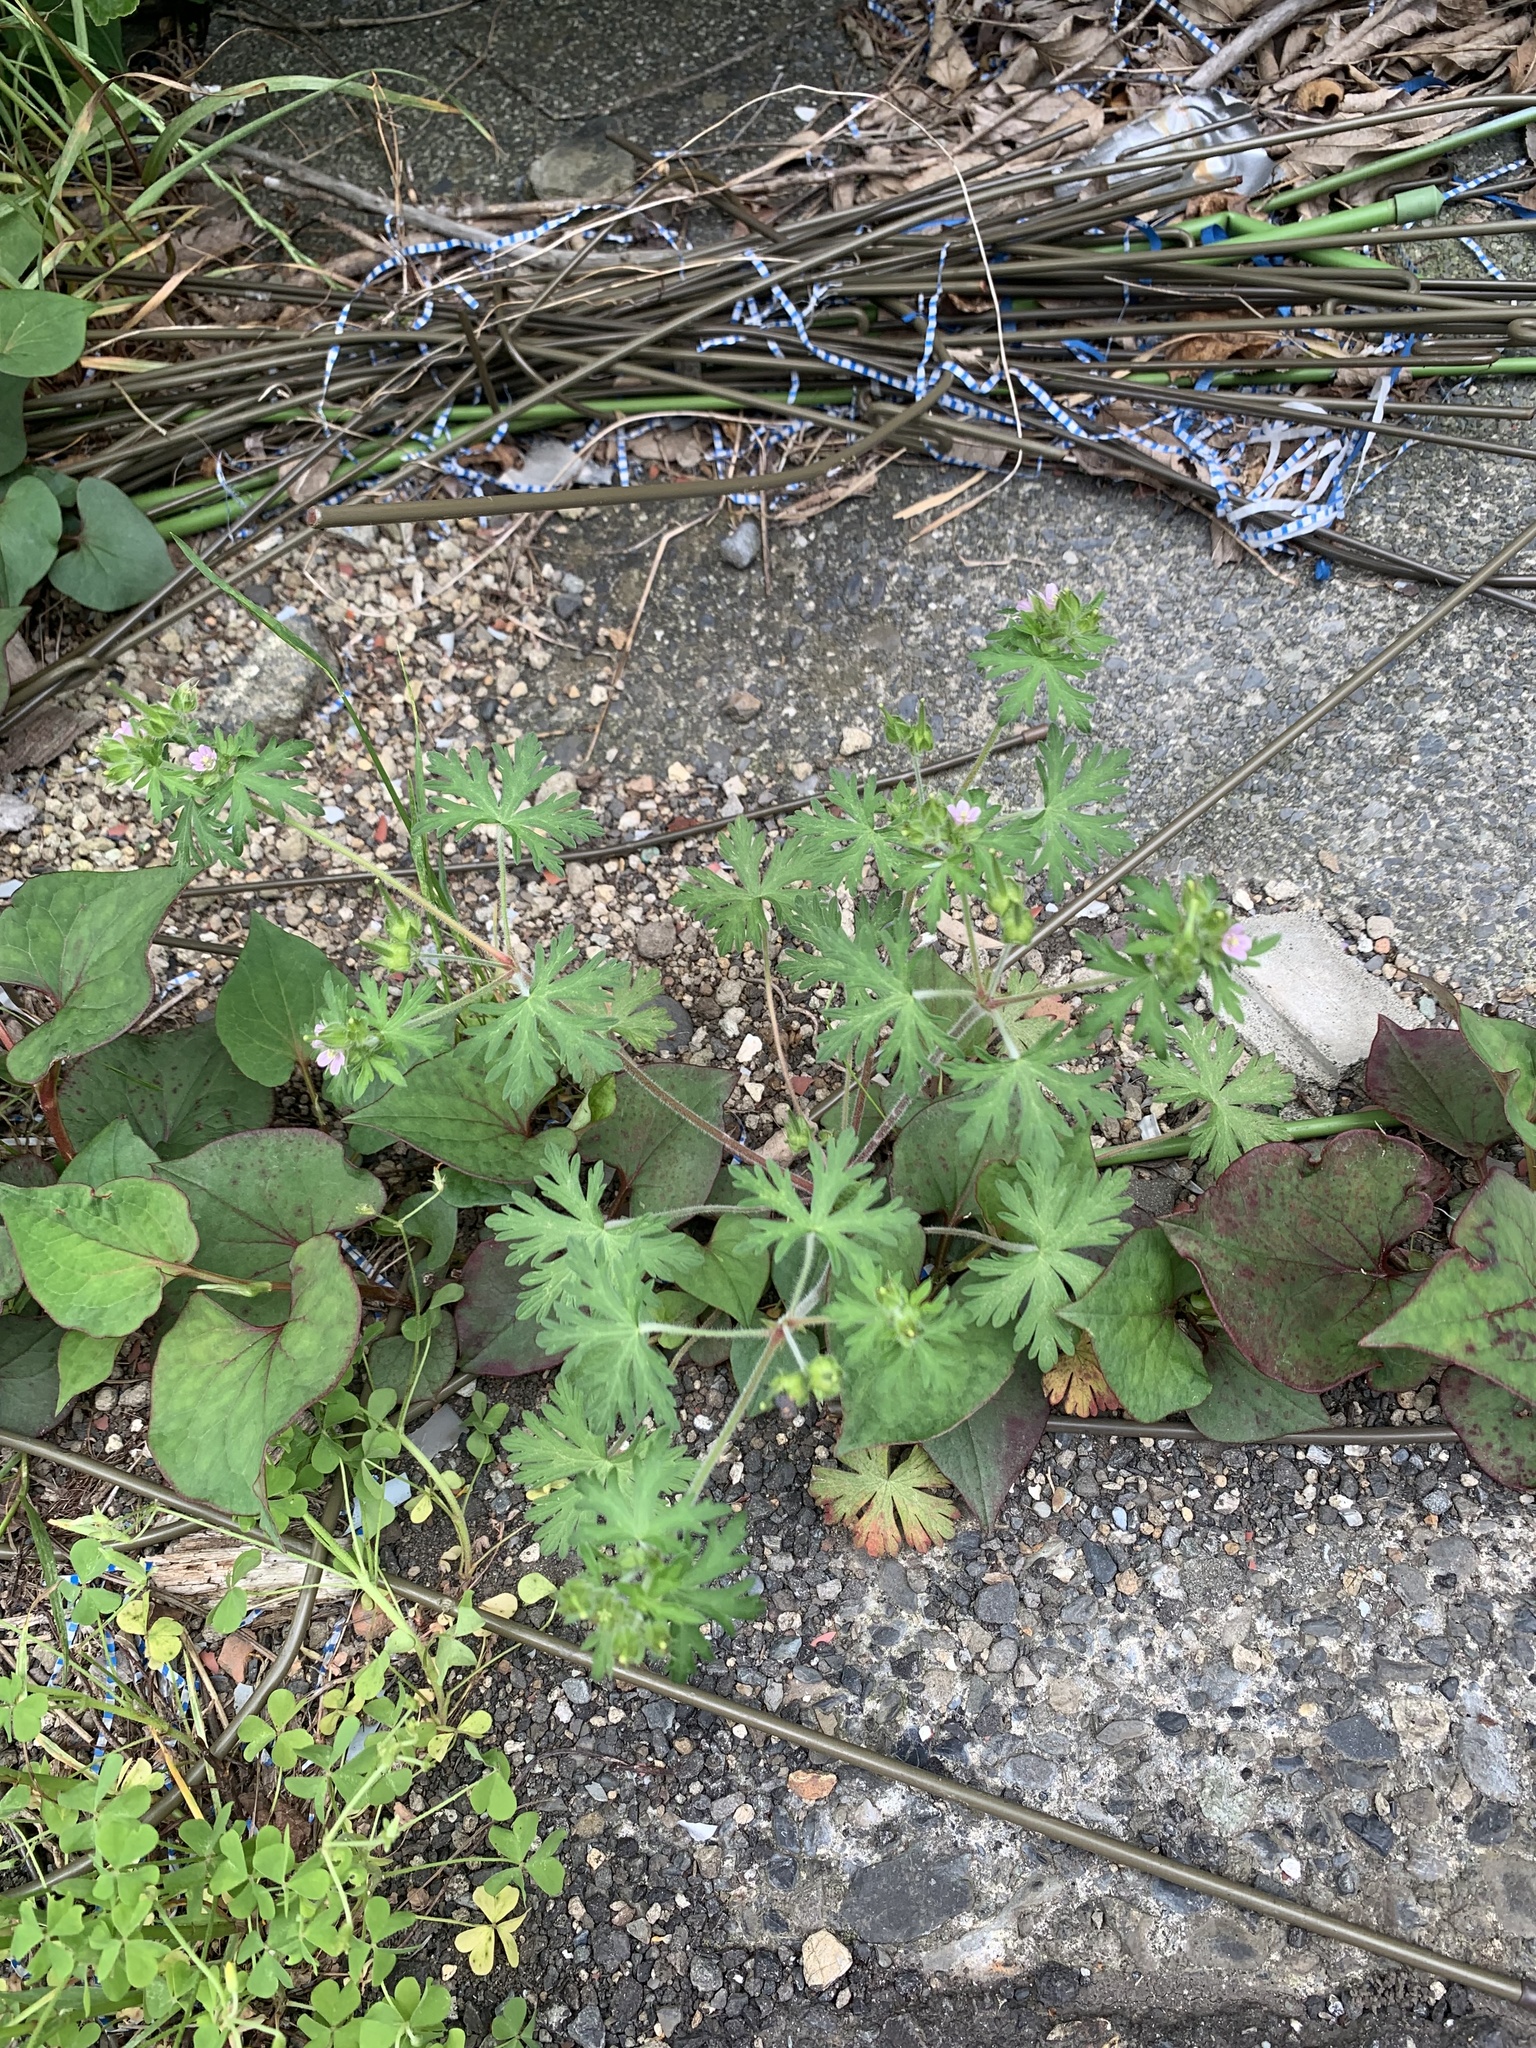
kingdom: Plantae
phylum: Tracheophyta
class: Magnoliopsida
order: Geraniales
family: Geraniaceae
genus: Geranium
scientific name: Geranium carolinianum
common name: Carolina crane's-bill
